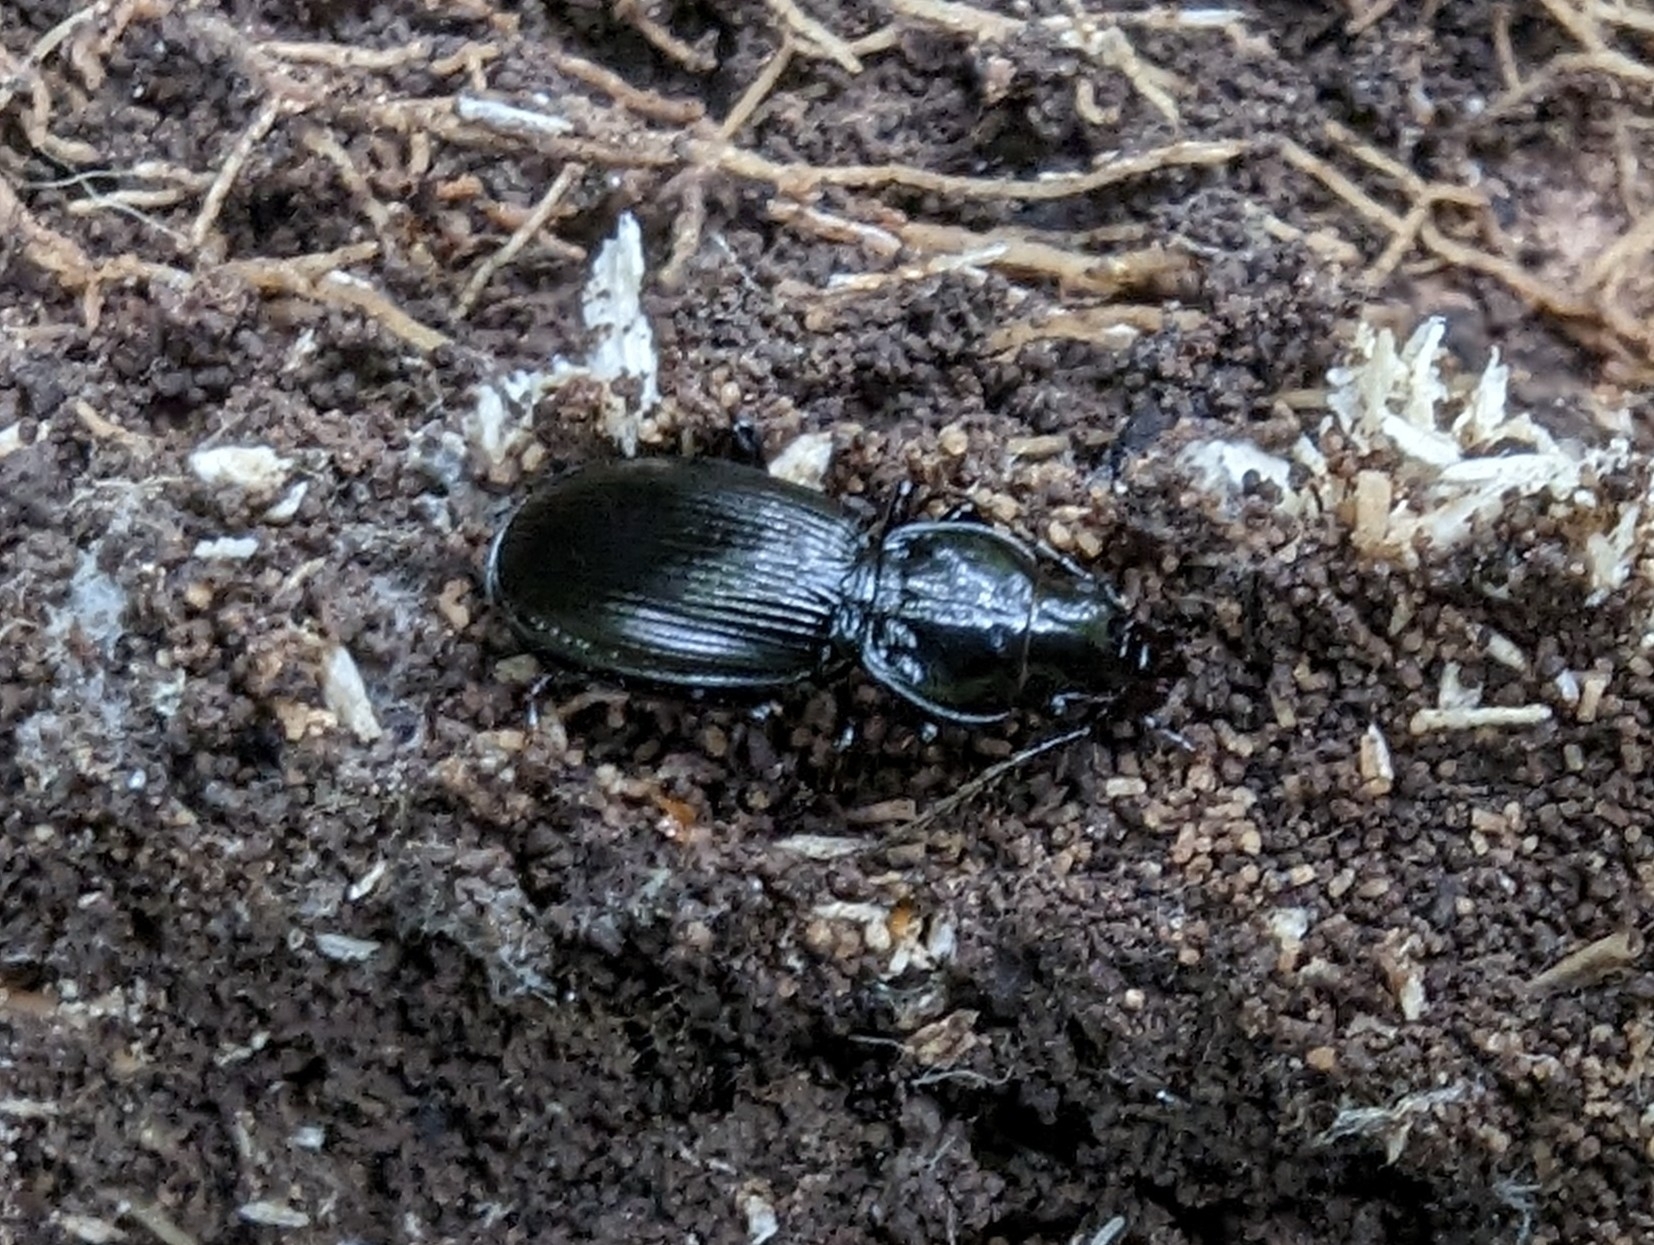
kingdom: Animalia
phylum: Arthropoda
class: Insecta
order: Coleoptera
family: Carabidae
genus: Pterostichus
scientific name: Pterostichus madidus
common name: Black clock
